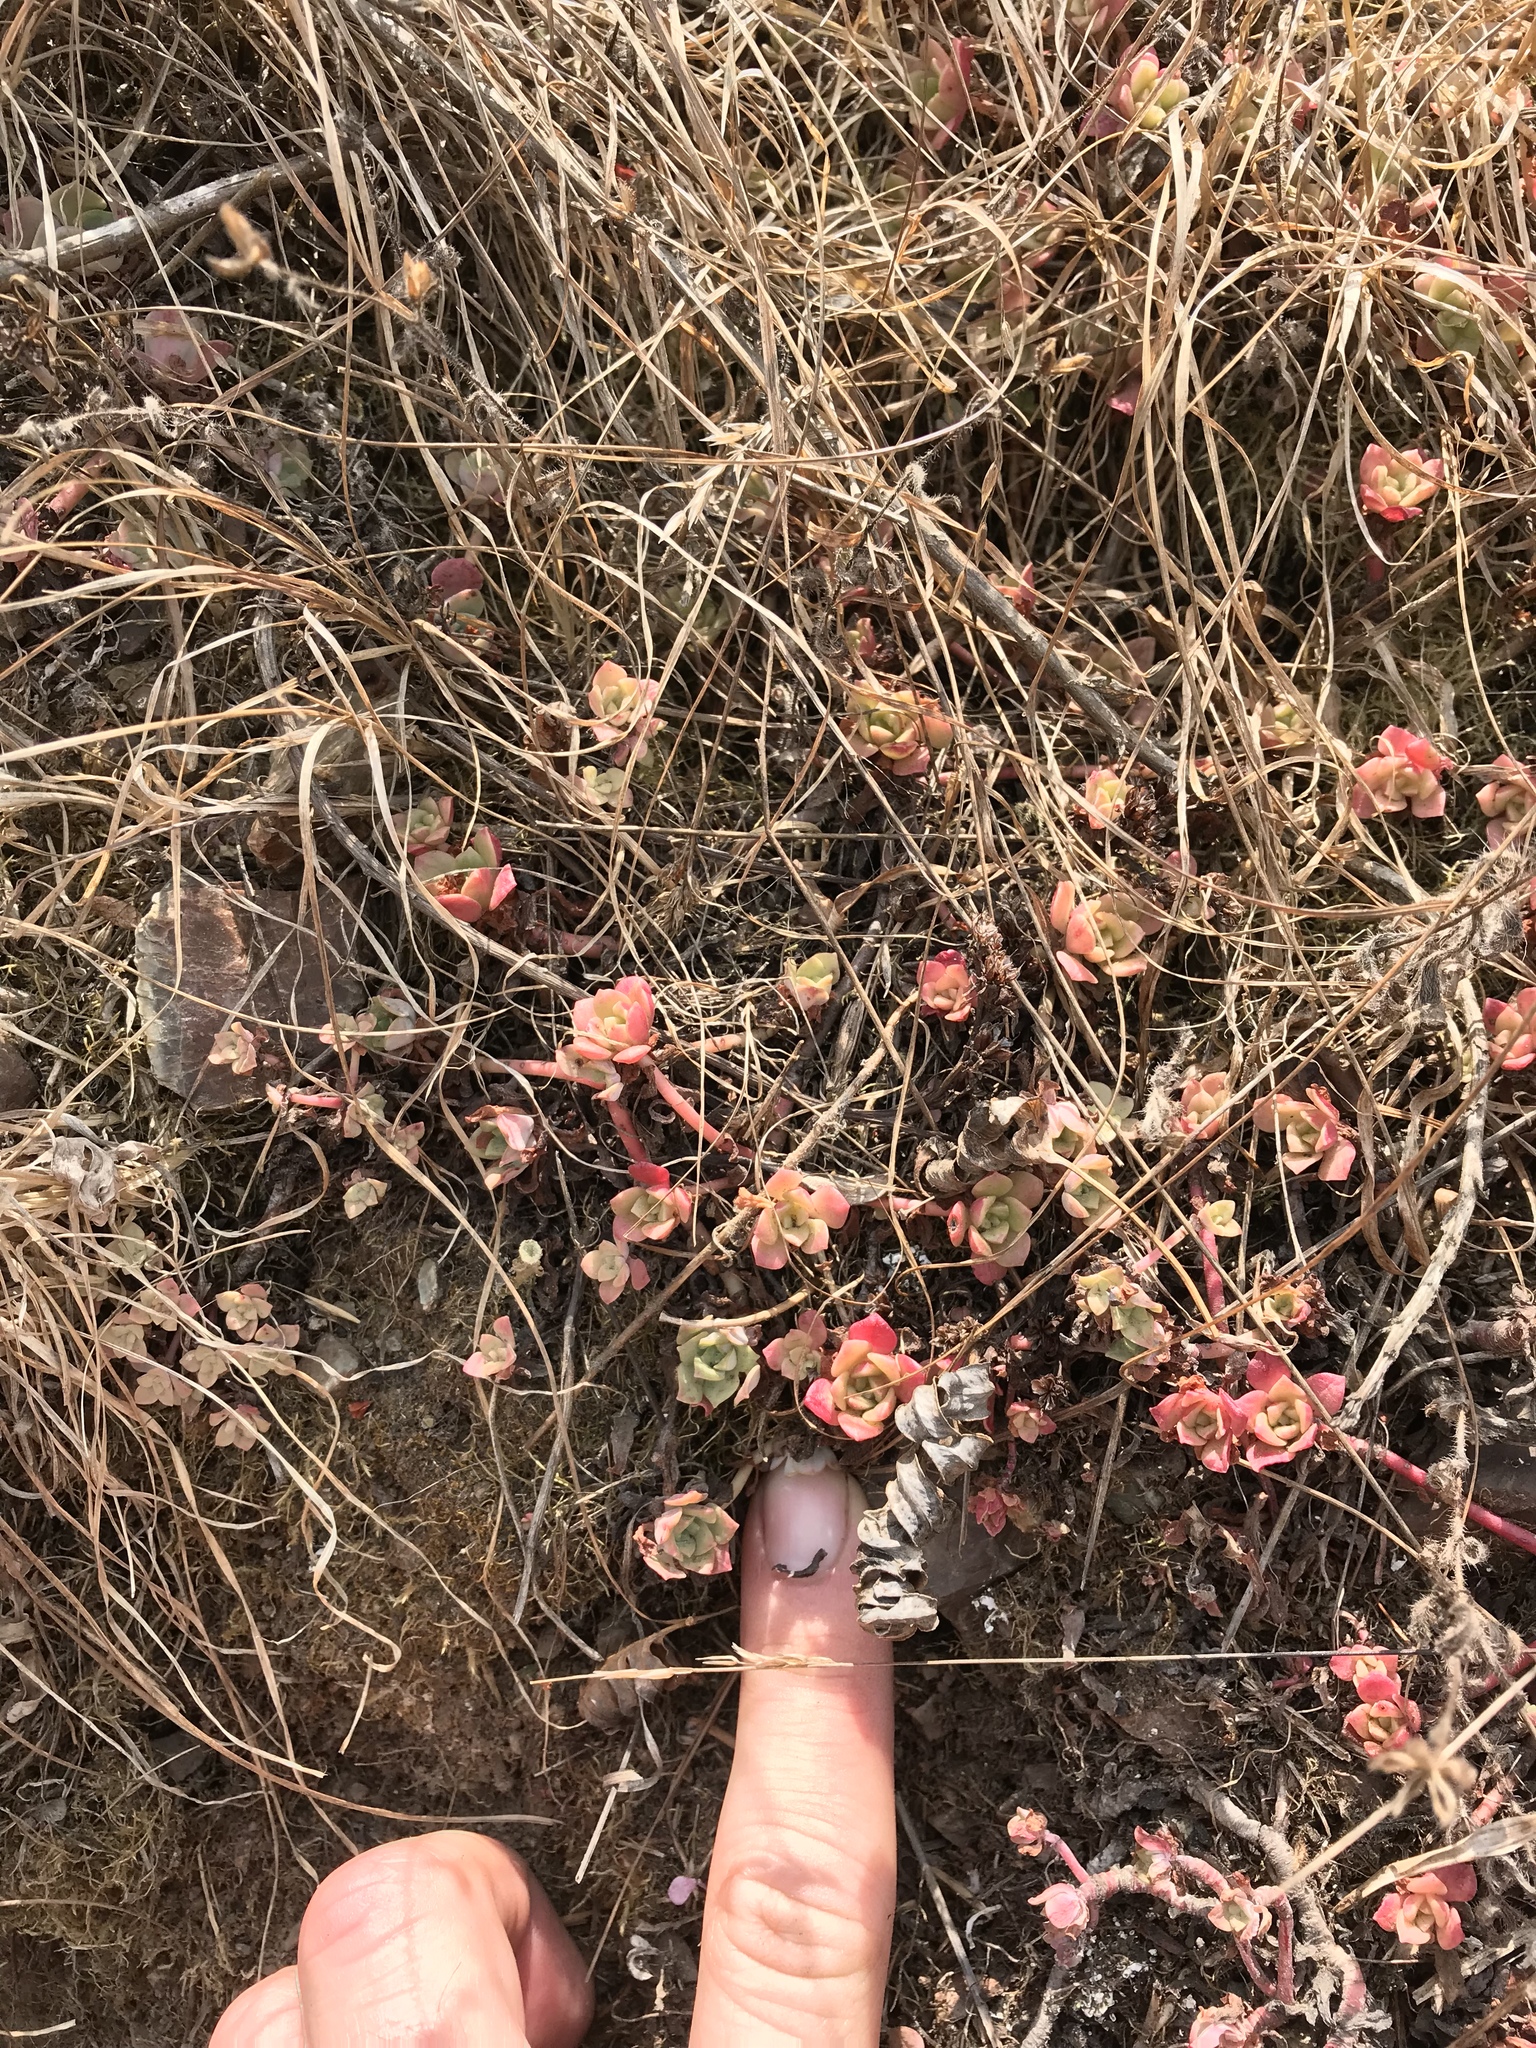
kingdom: Plantae
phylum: Tracheophyta
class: Magnoliopsida
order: Saxifragales
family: Crassulaceae
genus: Sedum
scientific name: Sedum spathulifolium
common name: Colorado stonecrop
